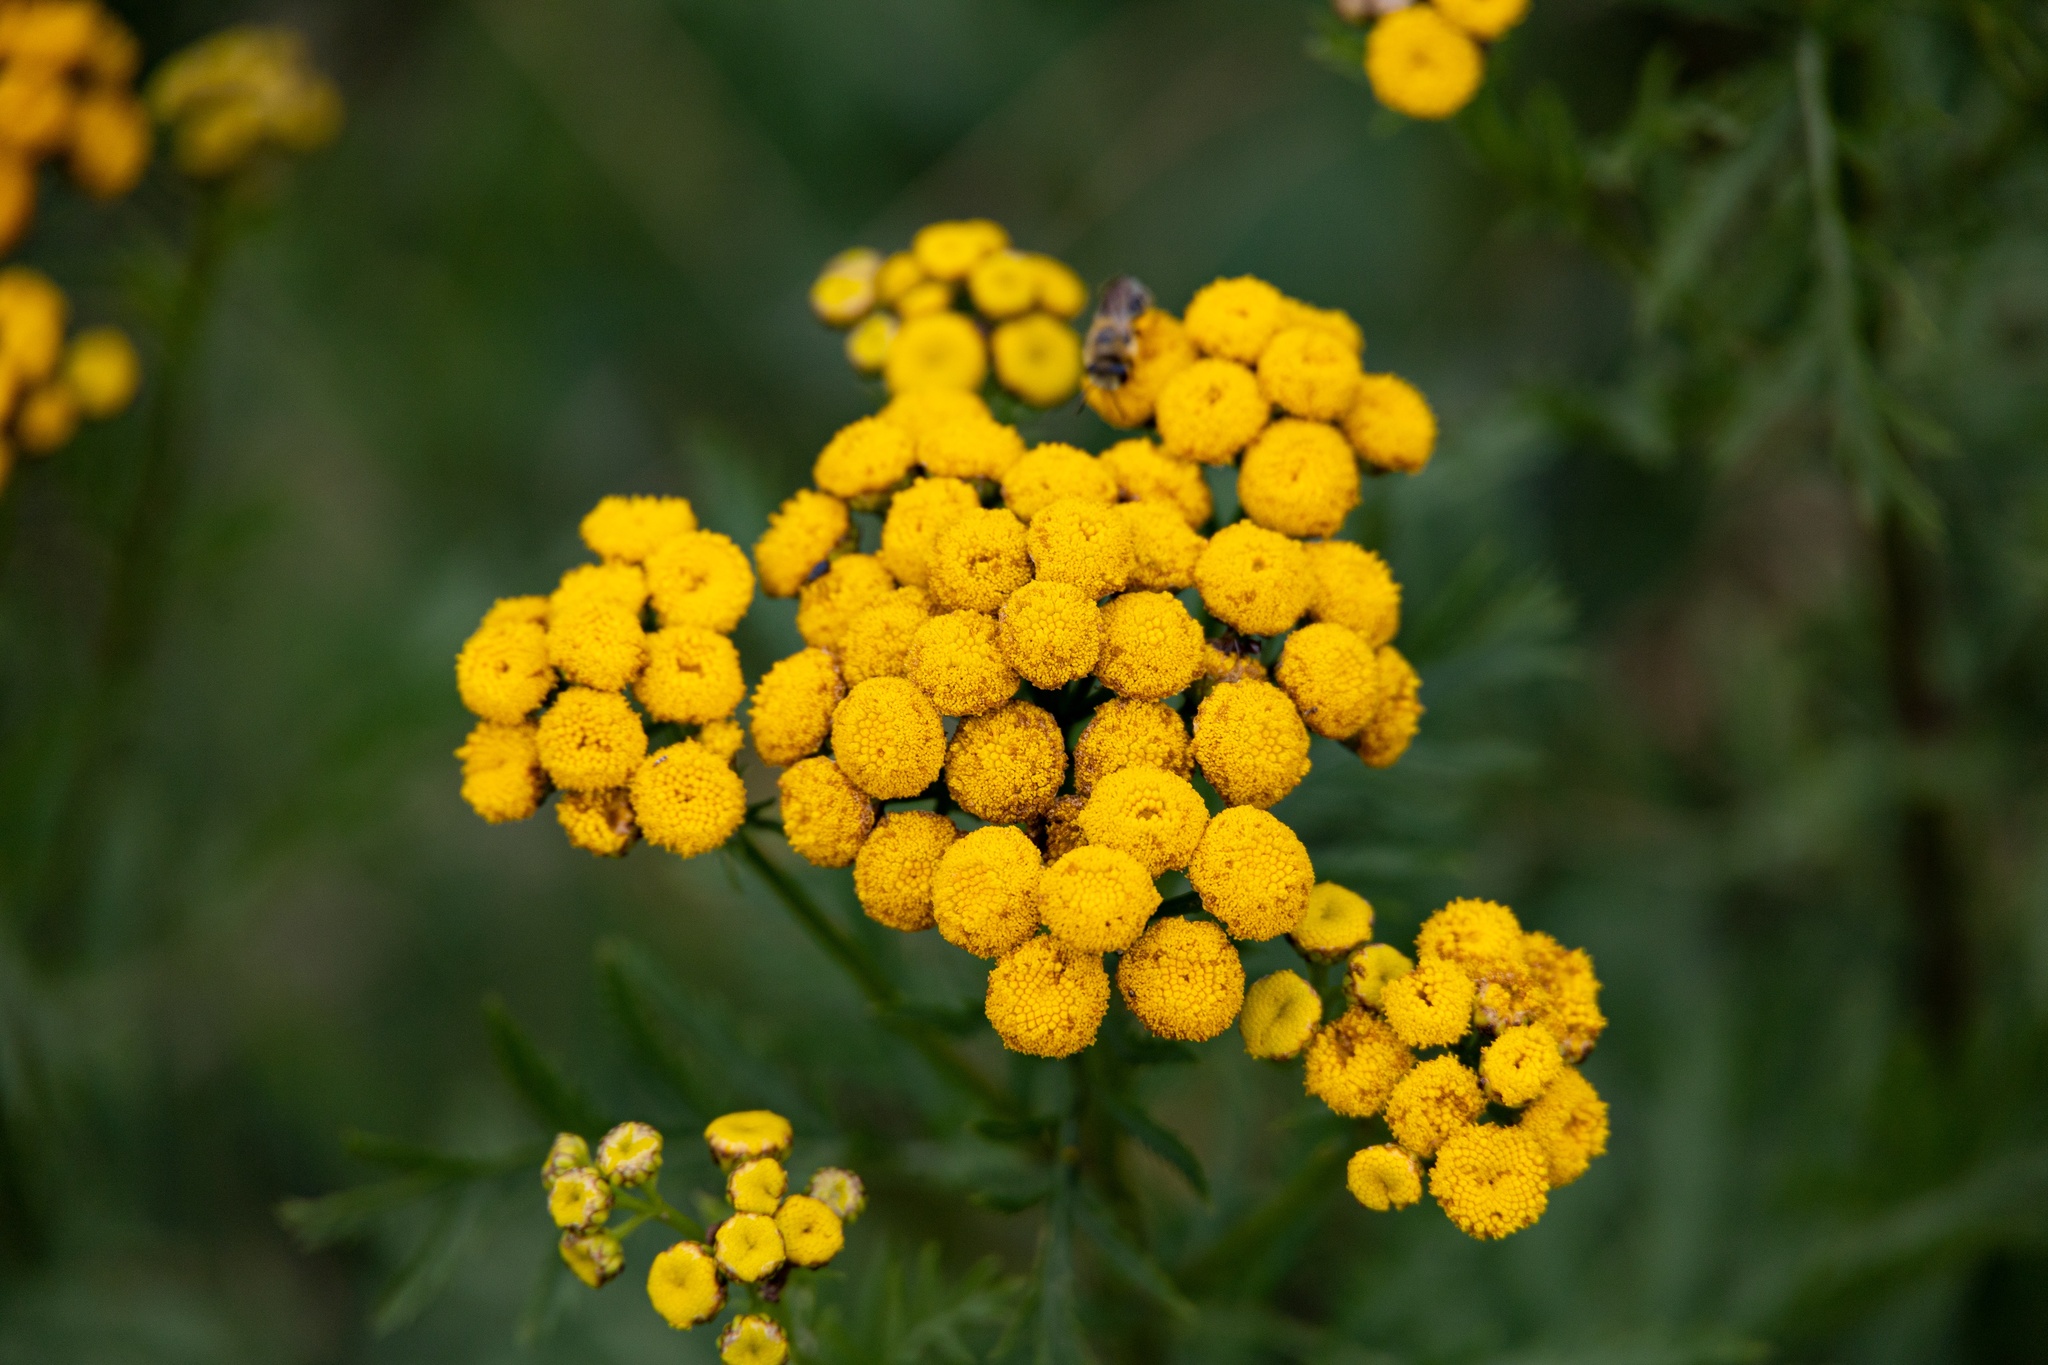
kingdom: Plantae
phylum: Tracheophyta
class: Magnoliopsida
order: Asterales
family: Asteraceae
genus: Tanacetum
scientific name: Tanacetum vulgare
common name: Common tansy
